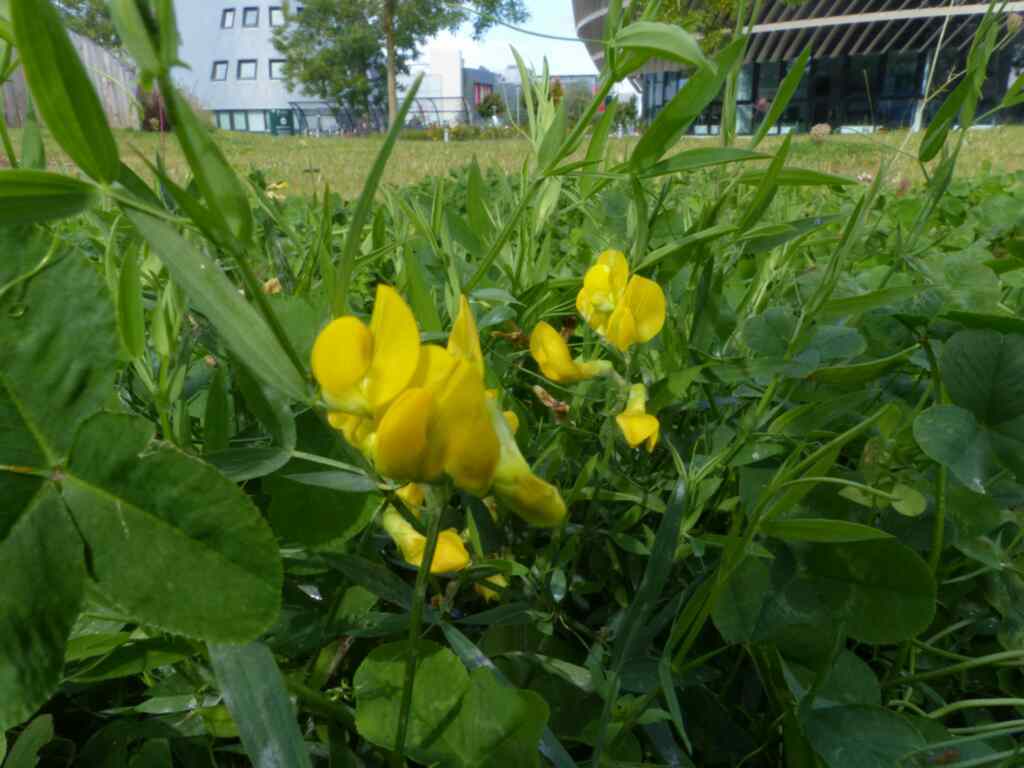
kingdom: Plantae
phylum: Tracheophyta
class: Magnoliopsida
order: Fabales
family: Fabaceae
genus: Lathyrus
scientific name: Lathyrus pratensis
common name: Meadow vetchling
